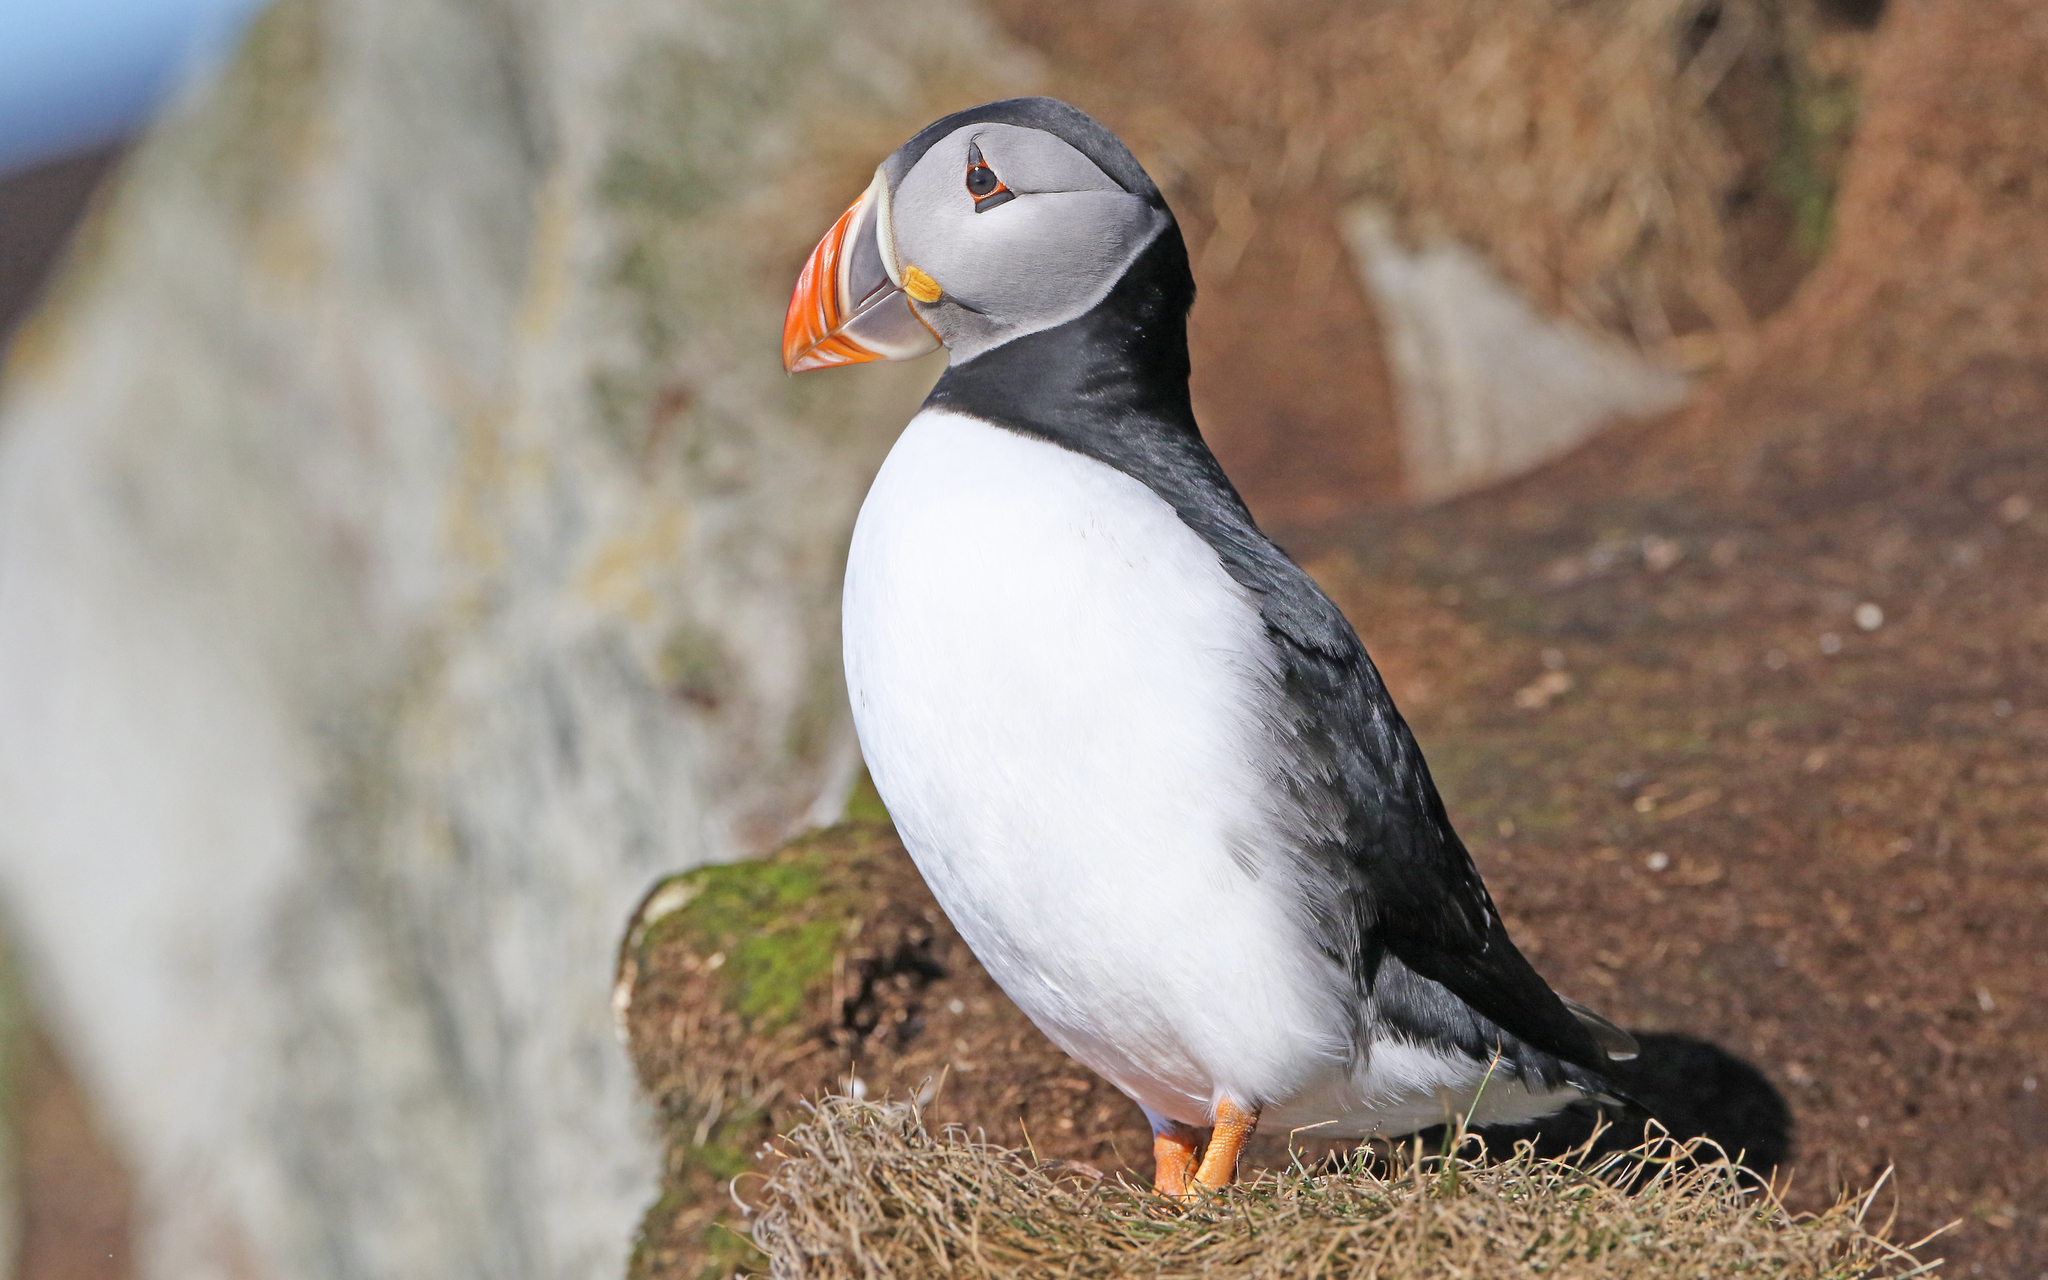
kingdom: Animalia
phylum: Chordata
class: Aves
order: Charadriiformes
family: Alcidae
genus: Fratercula
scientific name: Fratercula arctica
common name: Atlantic puffin
